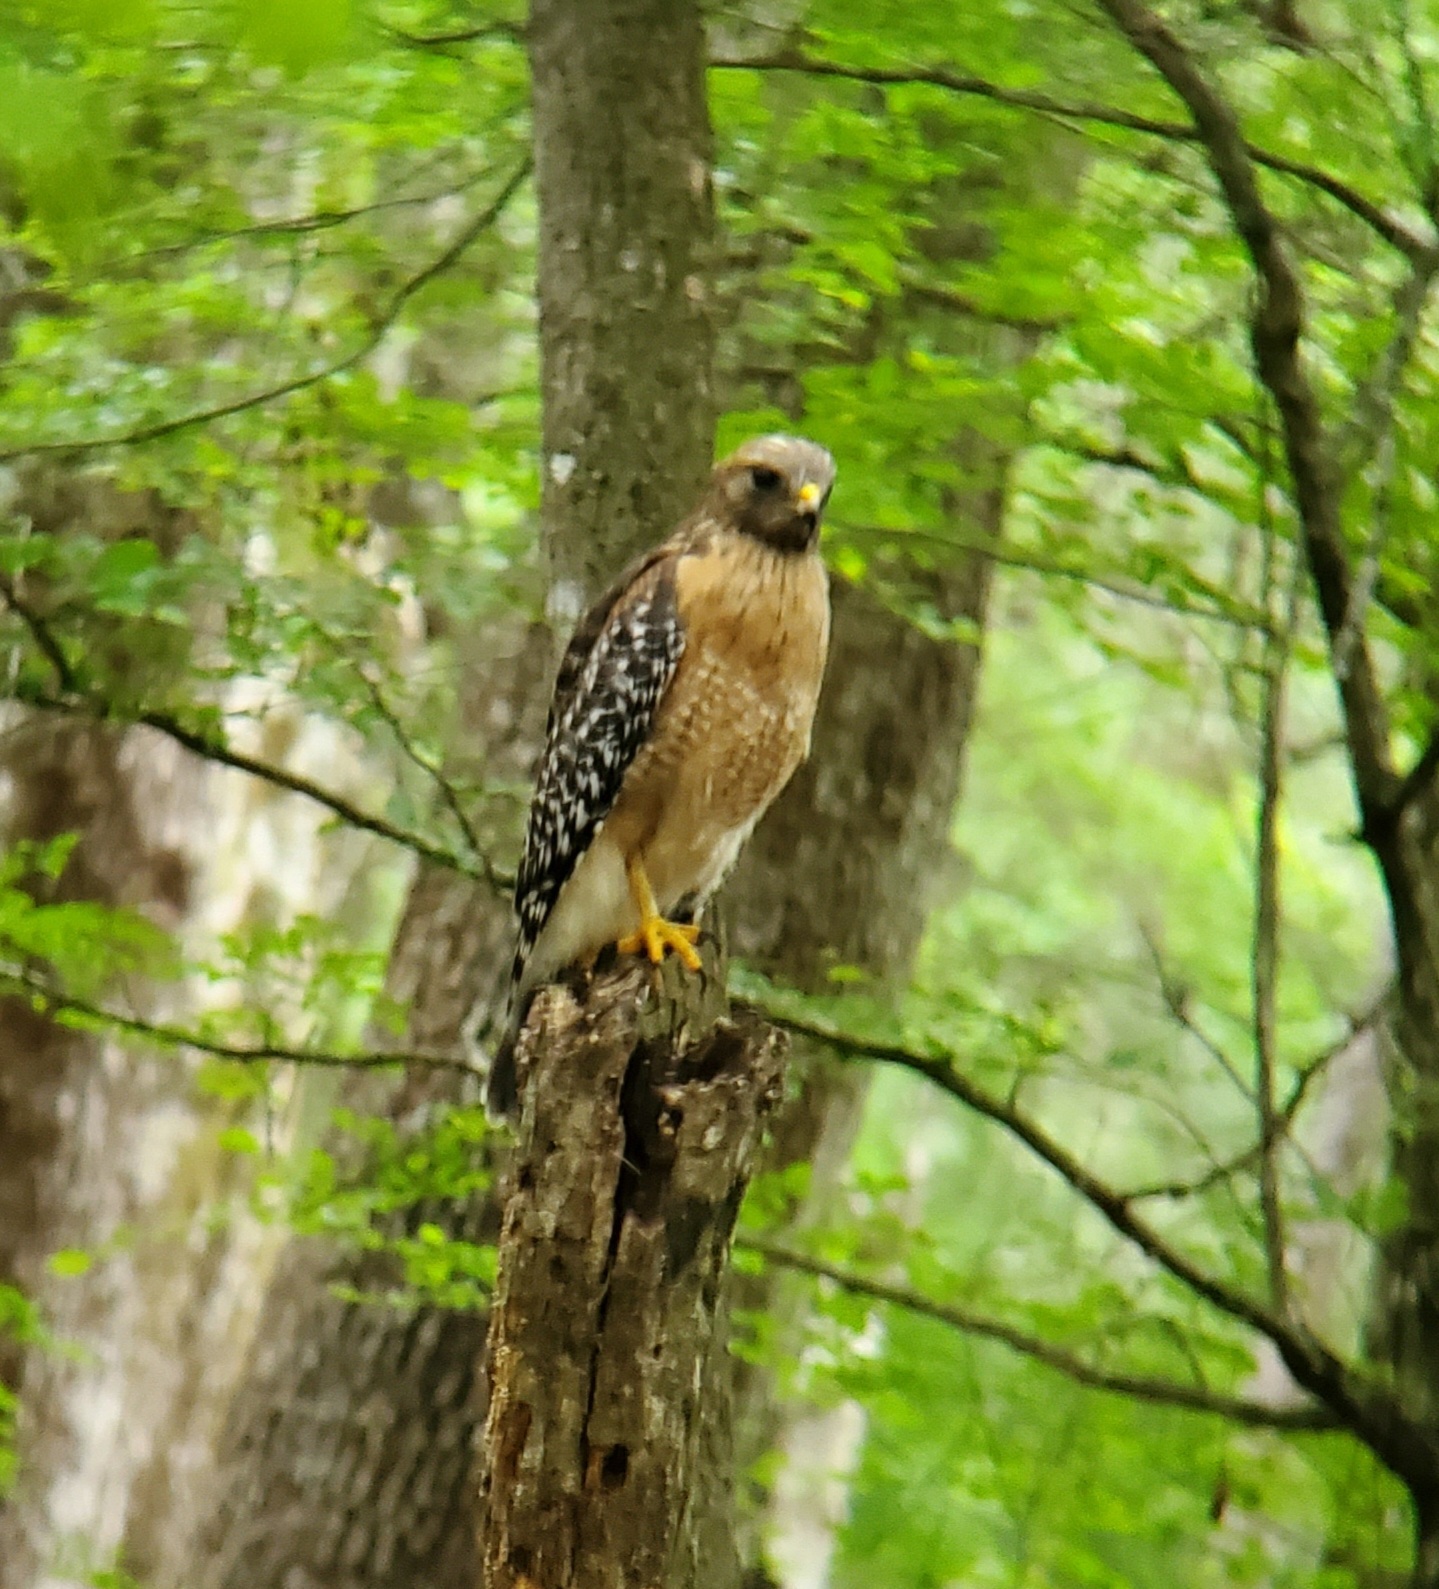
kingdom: Animalia
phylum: Chordata
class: Aves
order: Accipitriformes
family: Accipitridae
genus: Buteo
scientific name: Buteo lineatus
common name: Red-shouldered hawk
